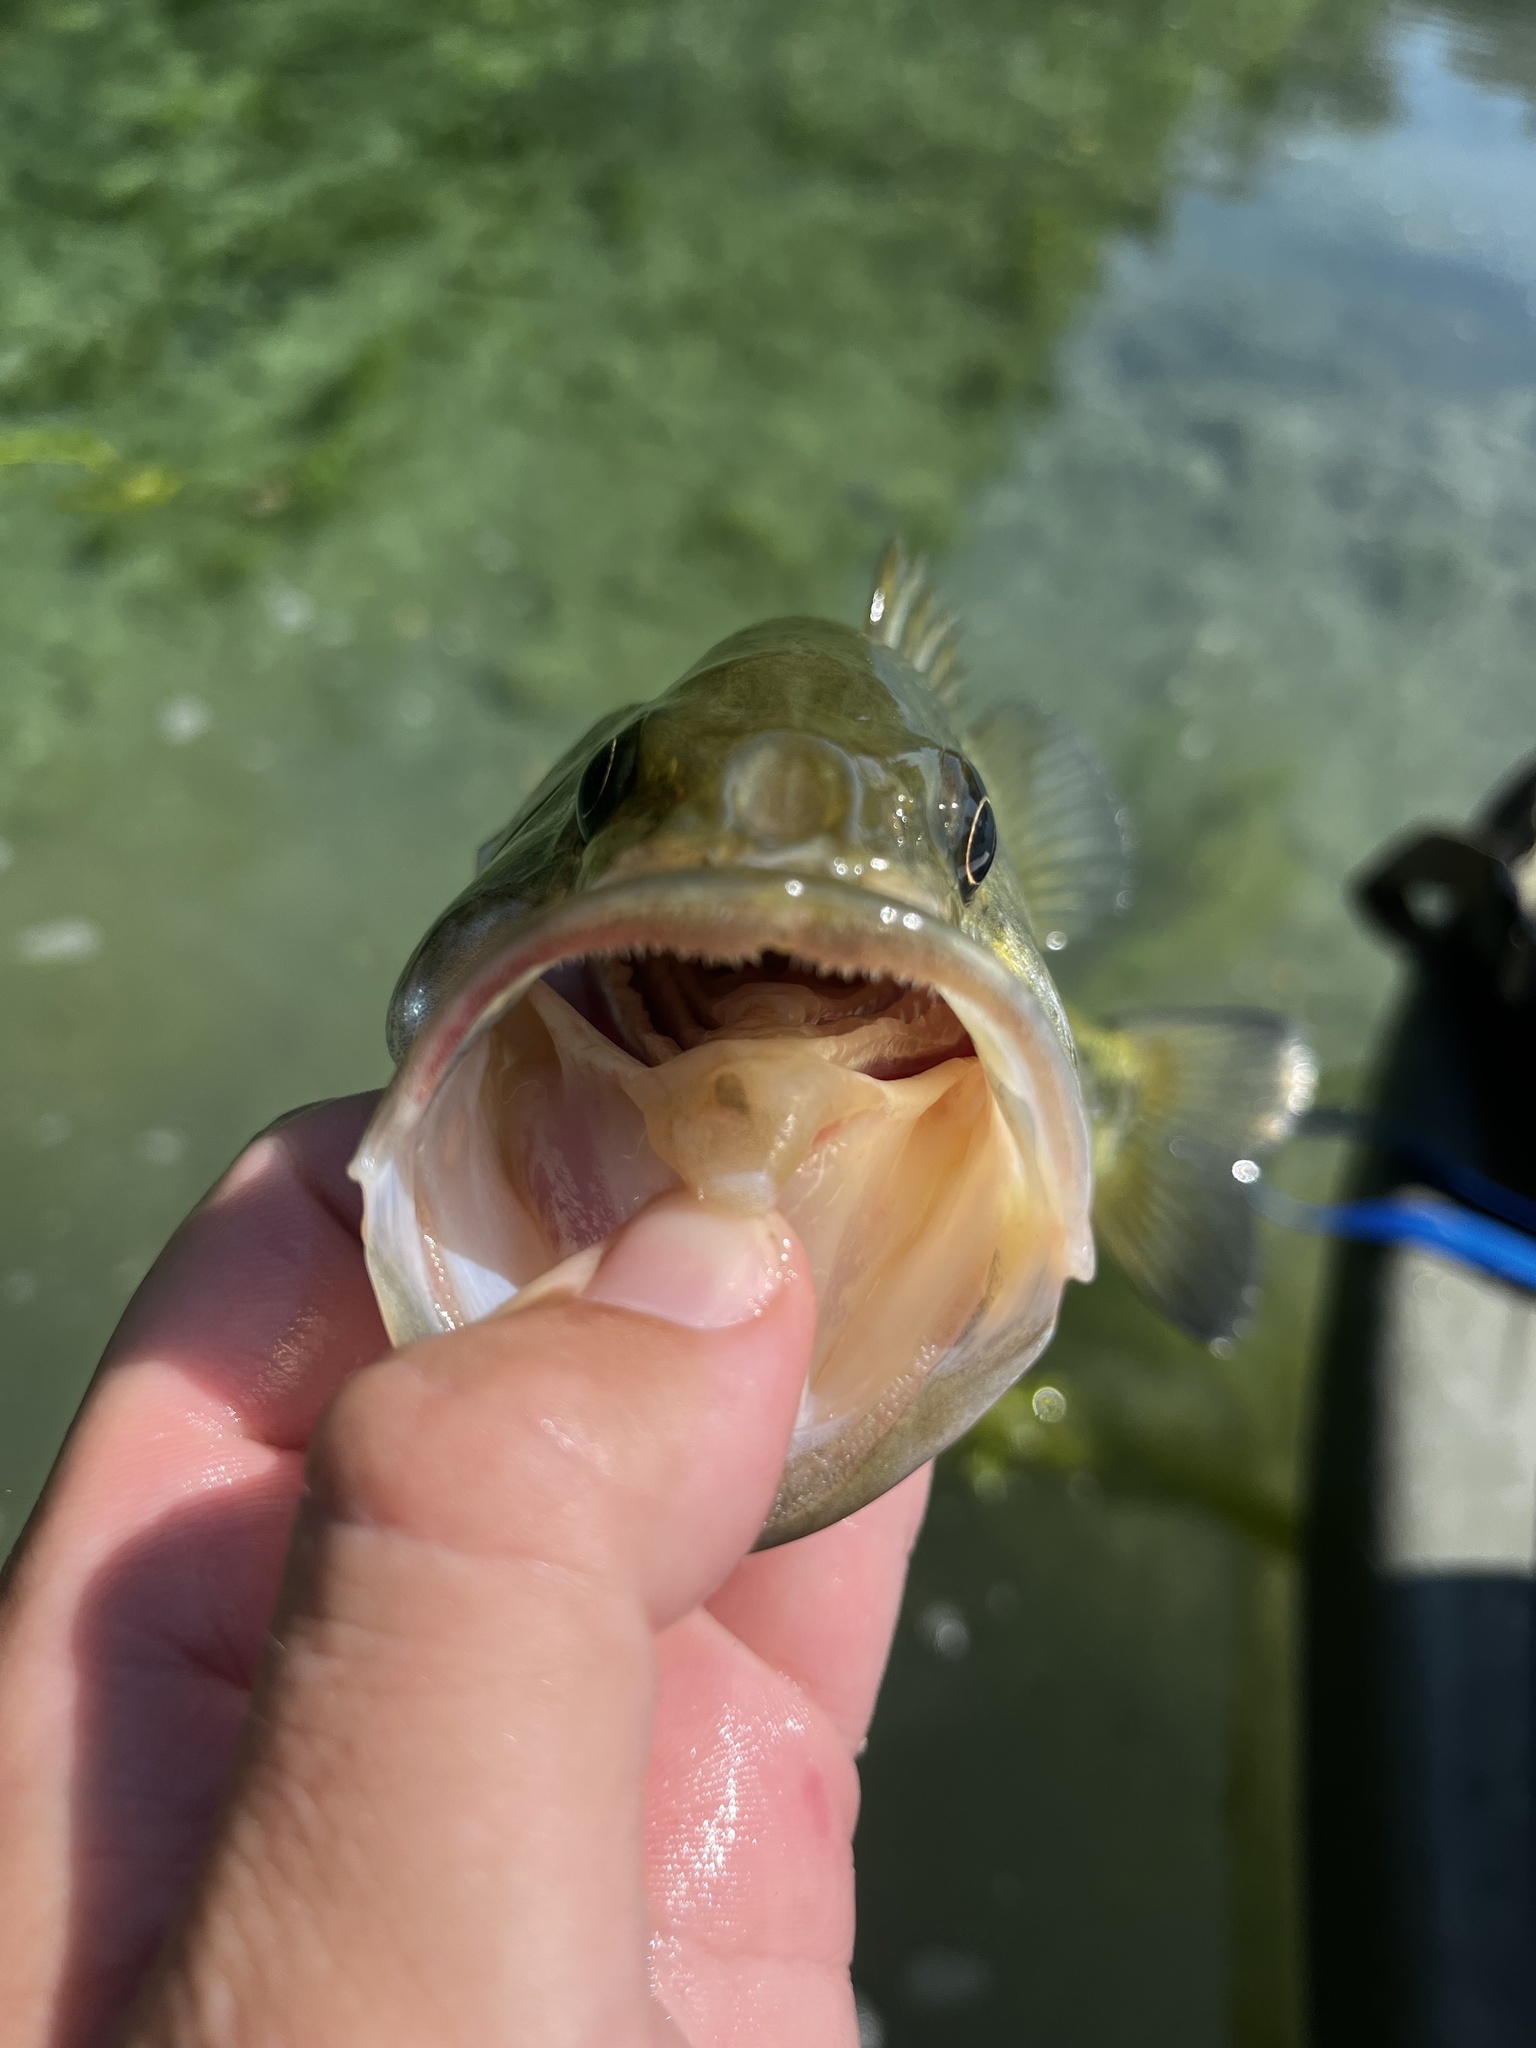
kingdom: Animalia
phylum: Chordata
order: Perciformes
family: Centrarchidae
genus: Micropterus
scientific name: Micropterus treculii
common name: Guadalupe bass
